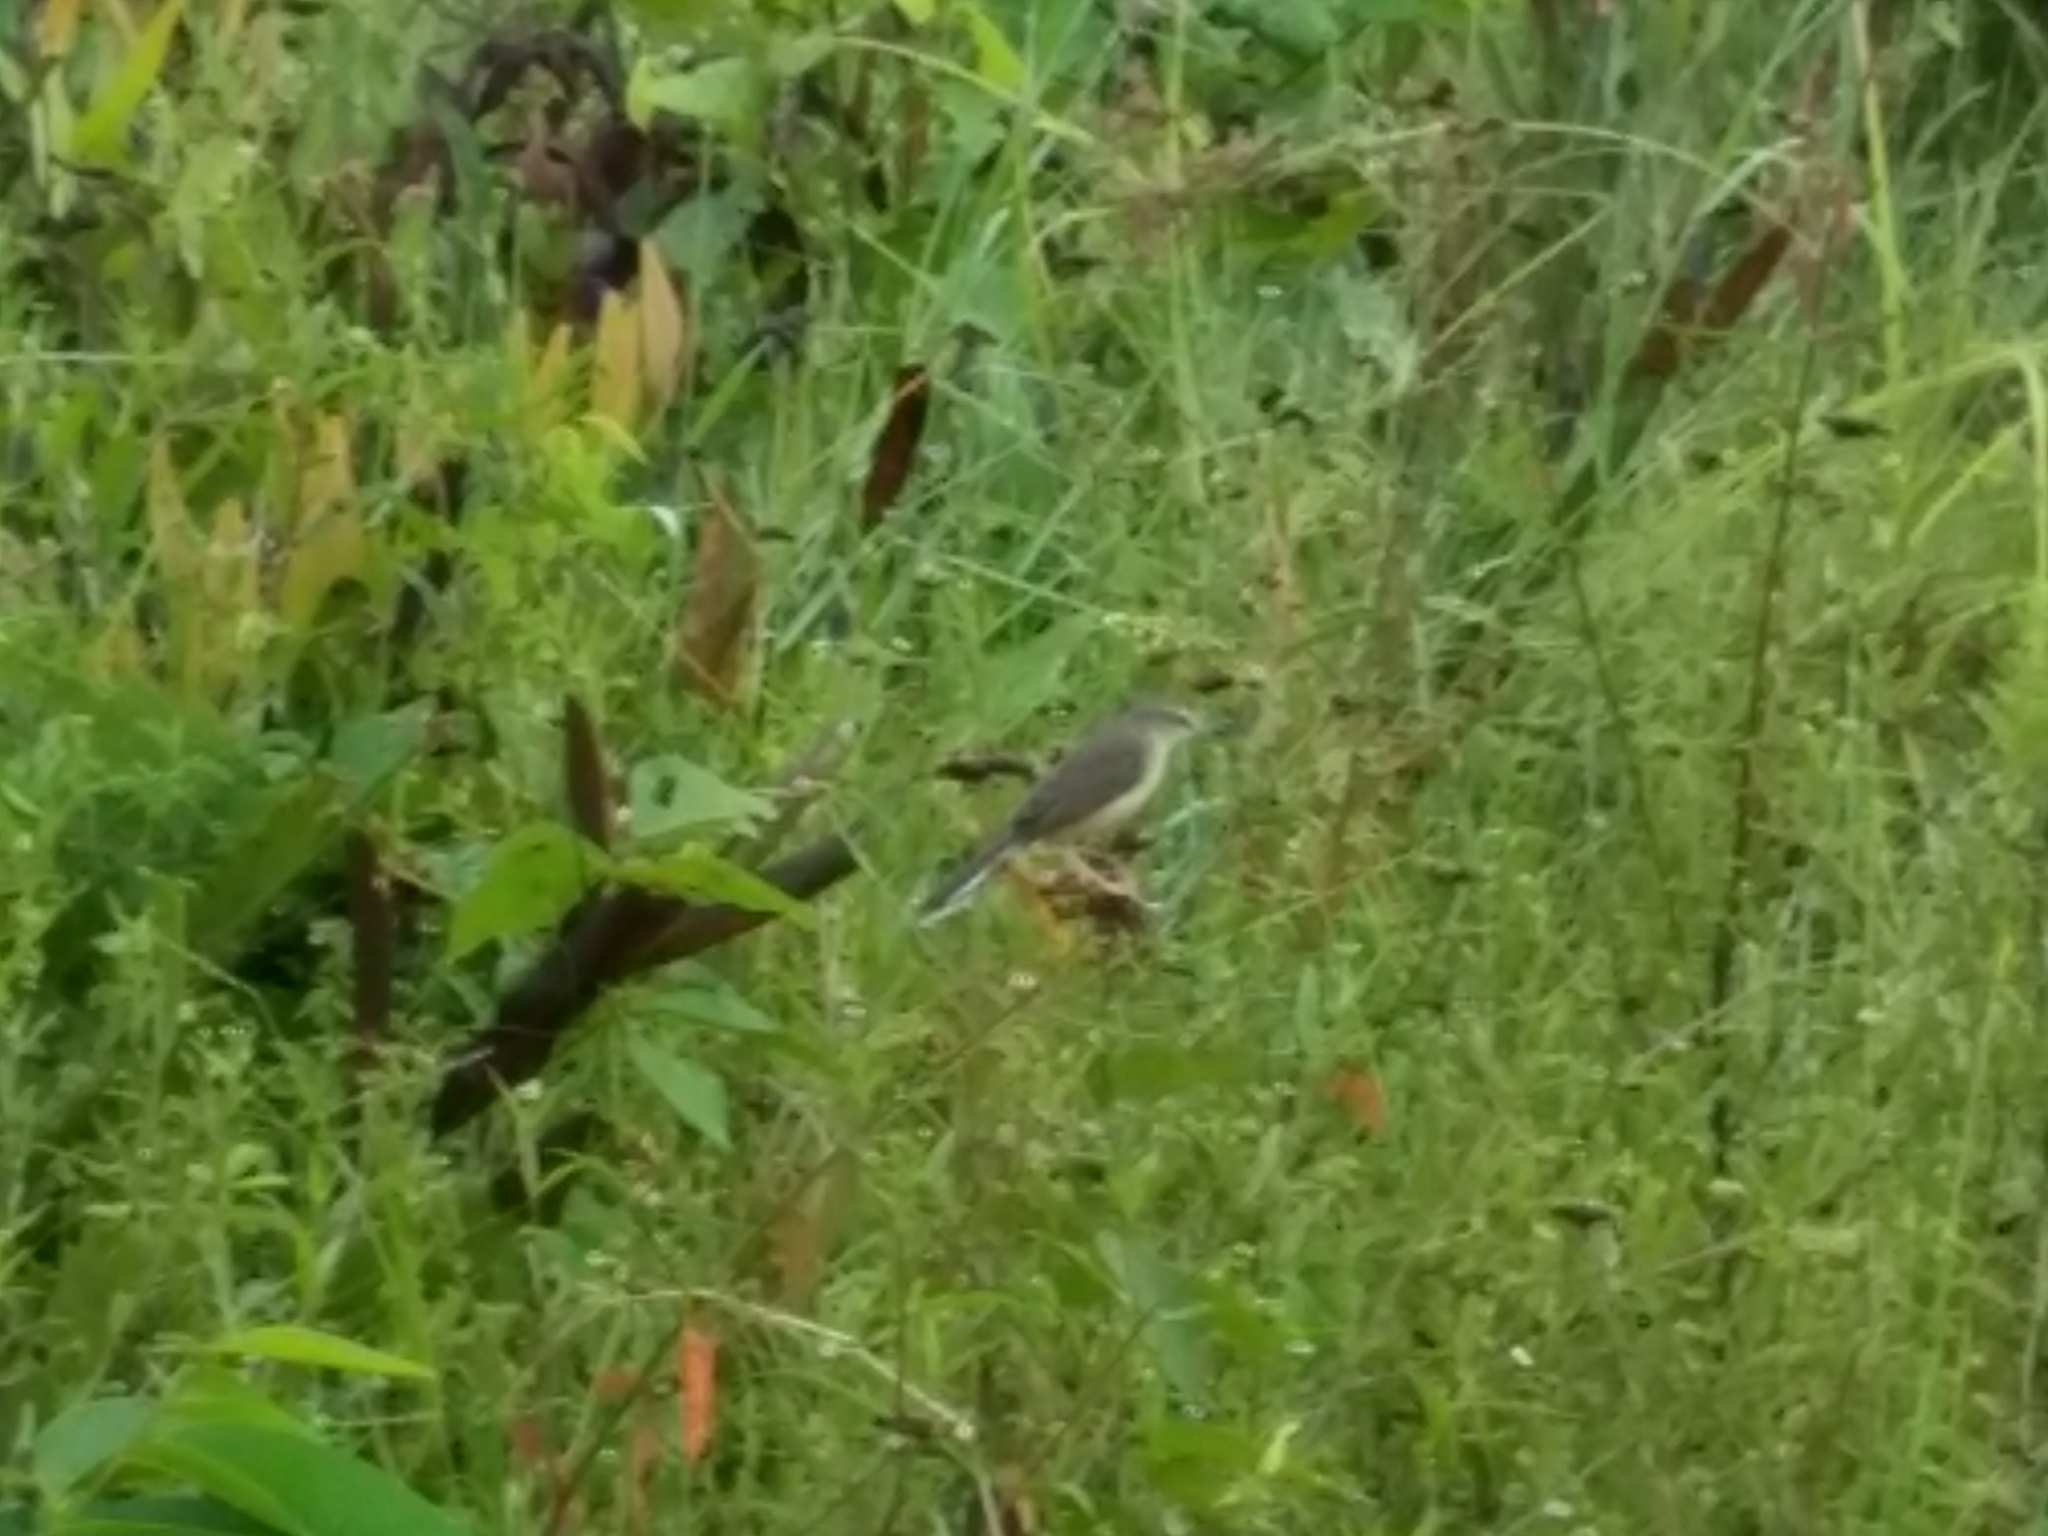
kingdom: Animalia
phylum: Chordata
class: Aves
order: Passeriformes
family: Cisticolidae
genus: Prinia
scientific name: Prinia inornata
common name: Plain prinia
